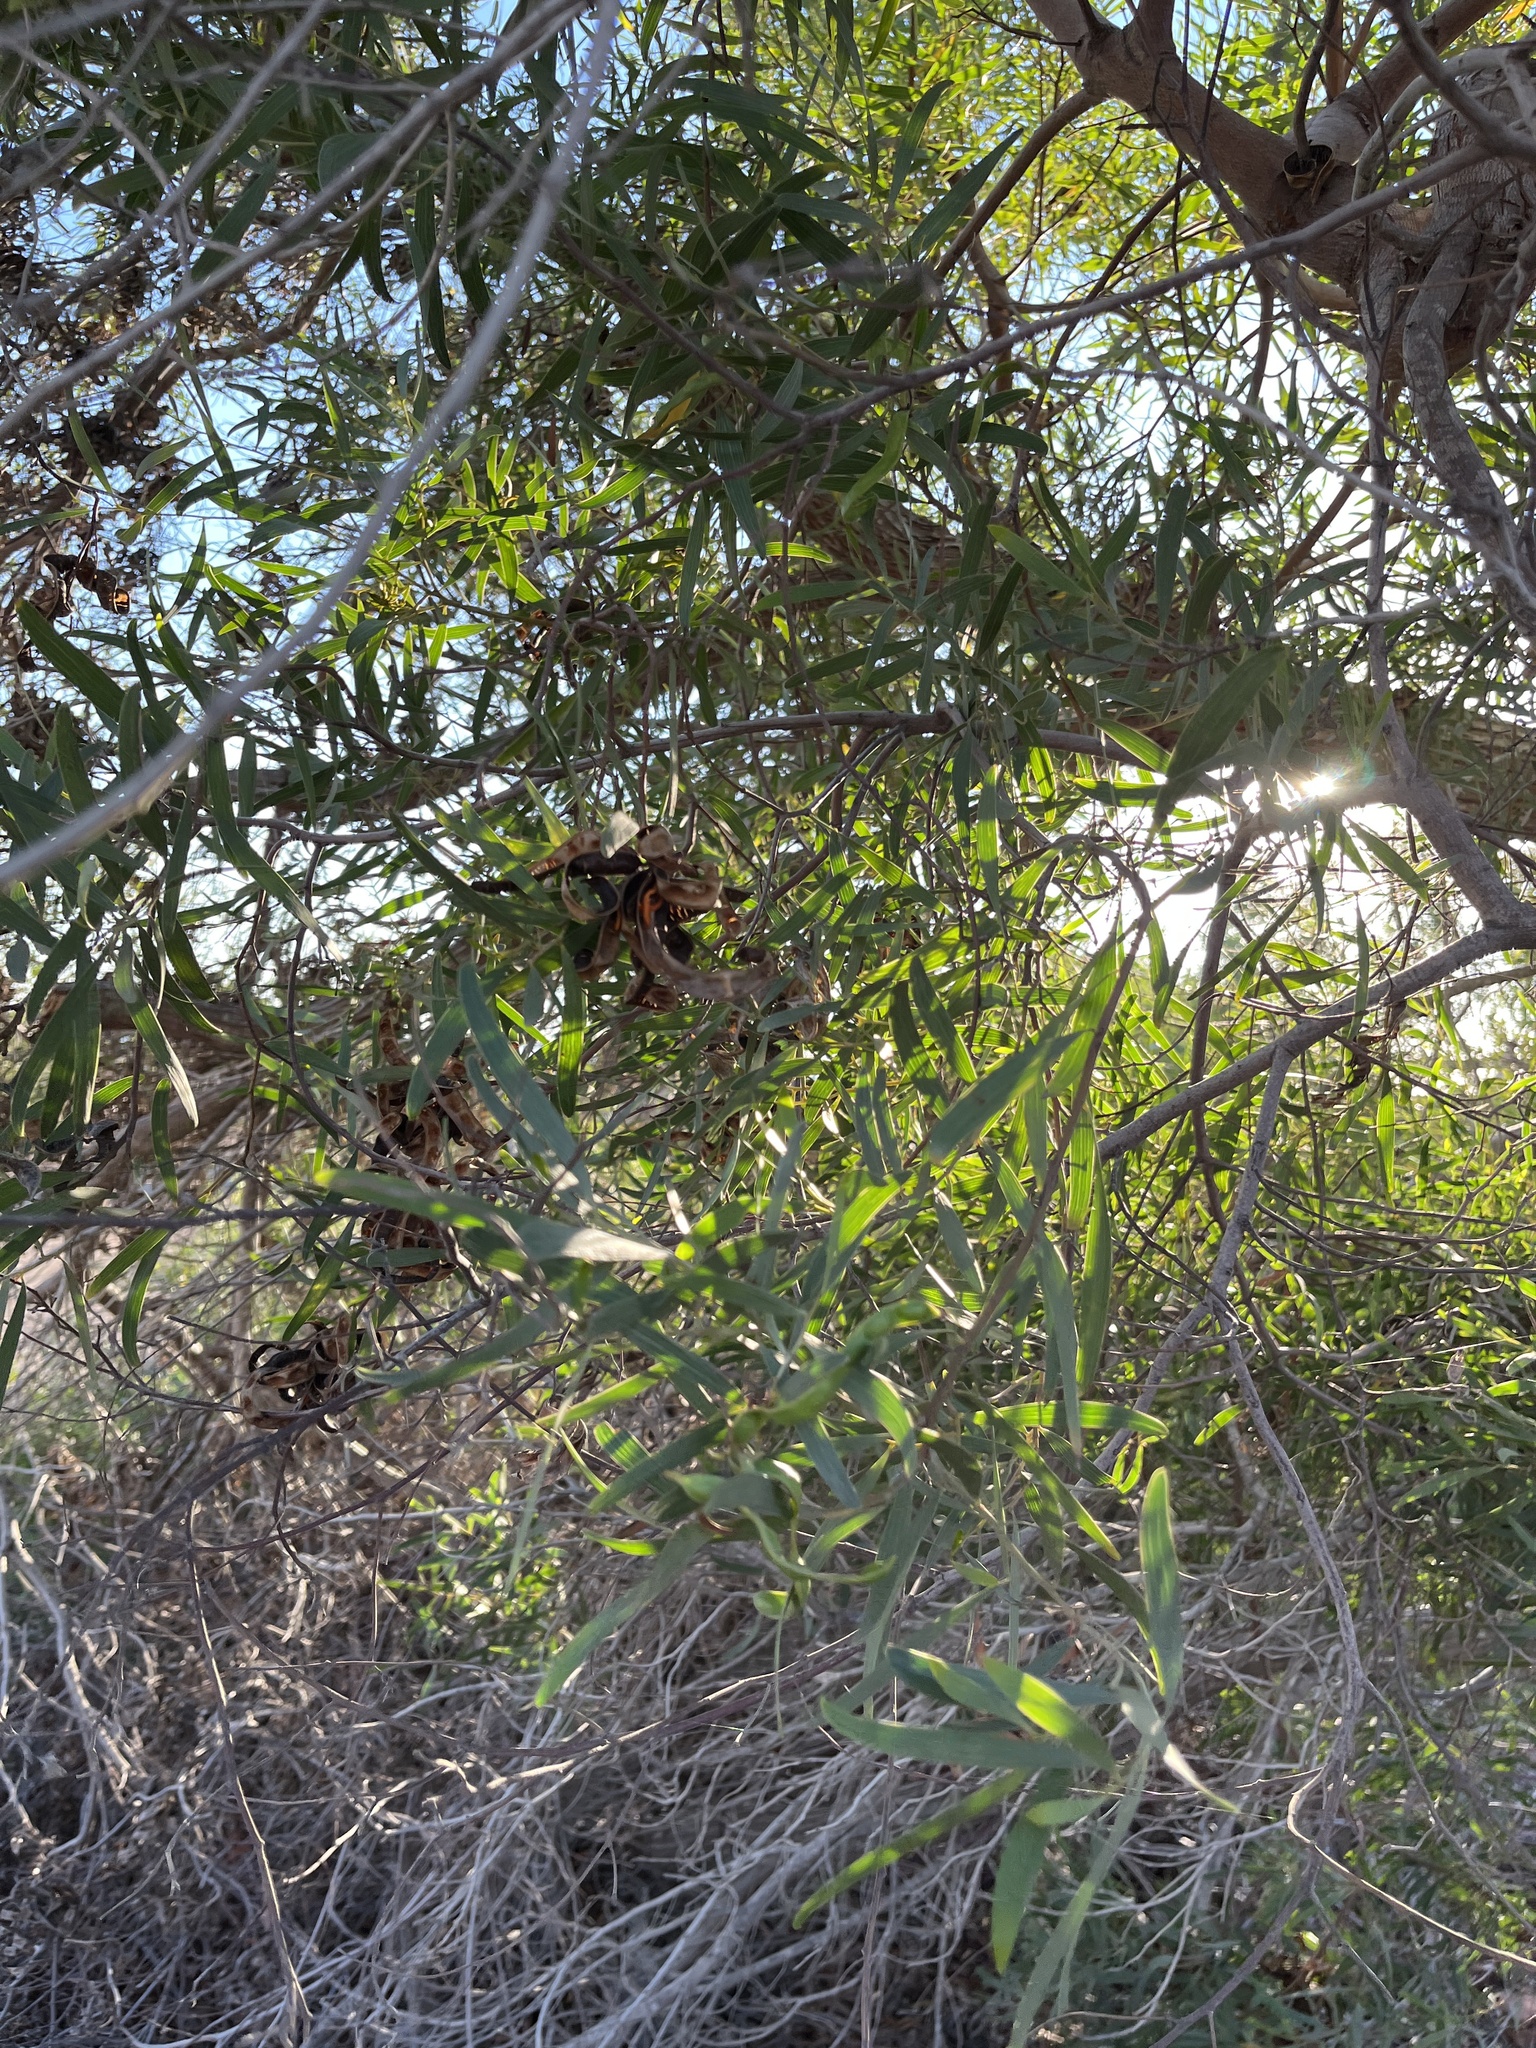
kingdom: Plantae
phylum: Tracheophyta
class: Magnoliopsida
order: Fabales
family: Fabaceae
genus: Acacia
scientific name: Acacia cyclops
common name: Coastal wattle
